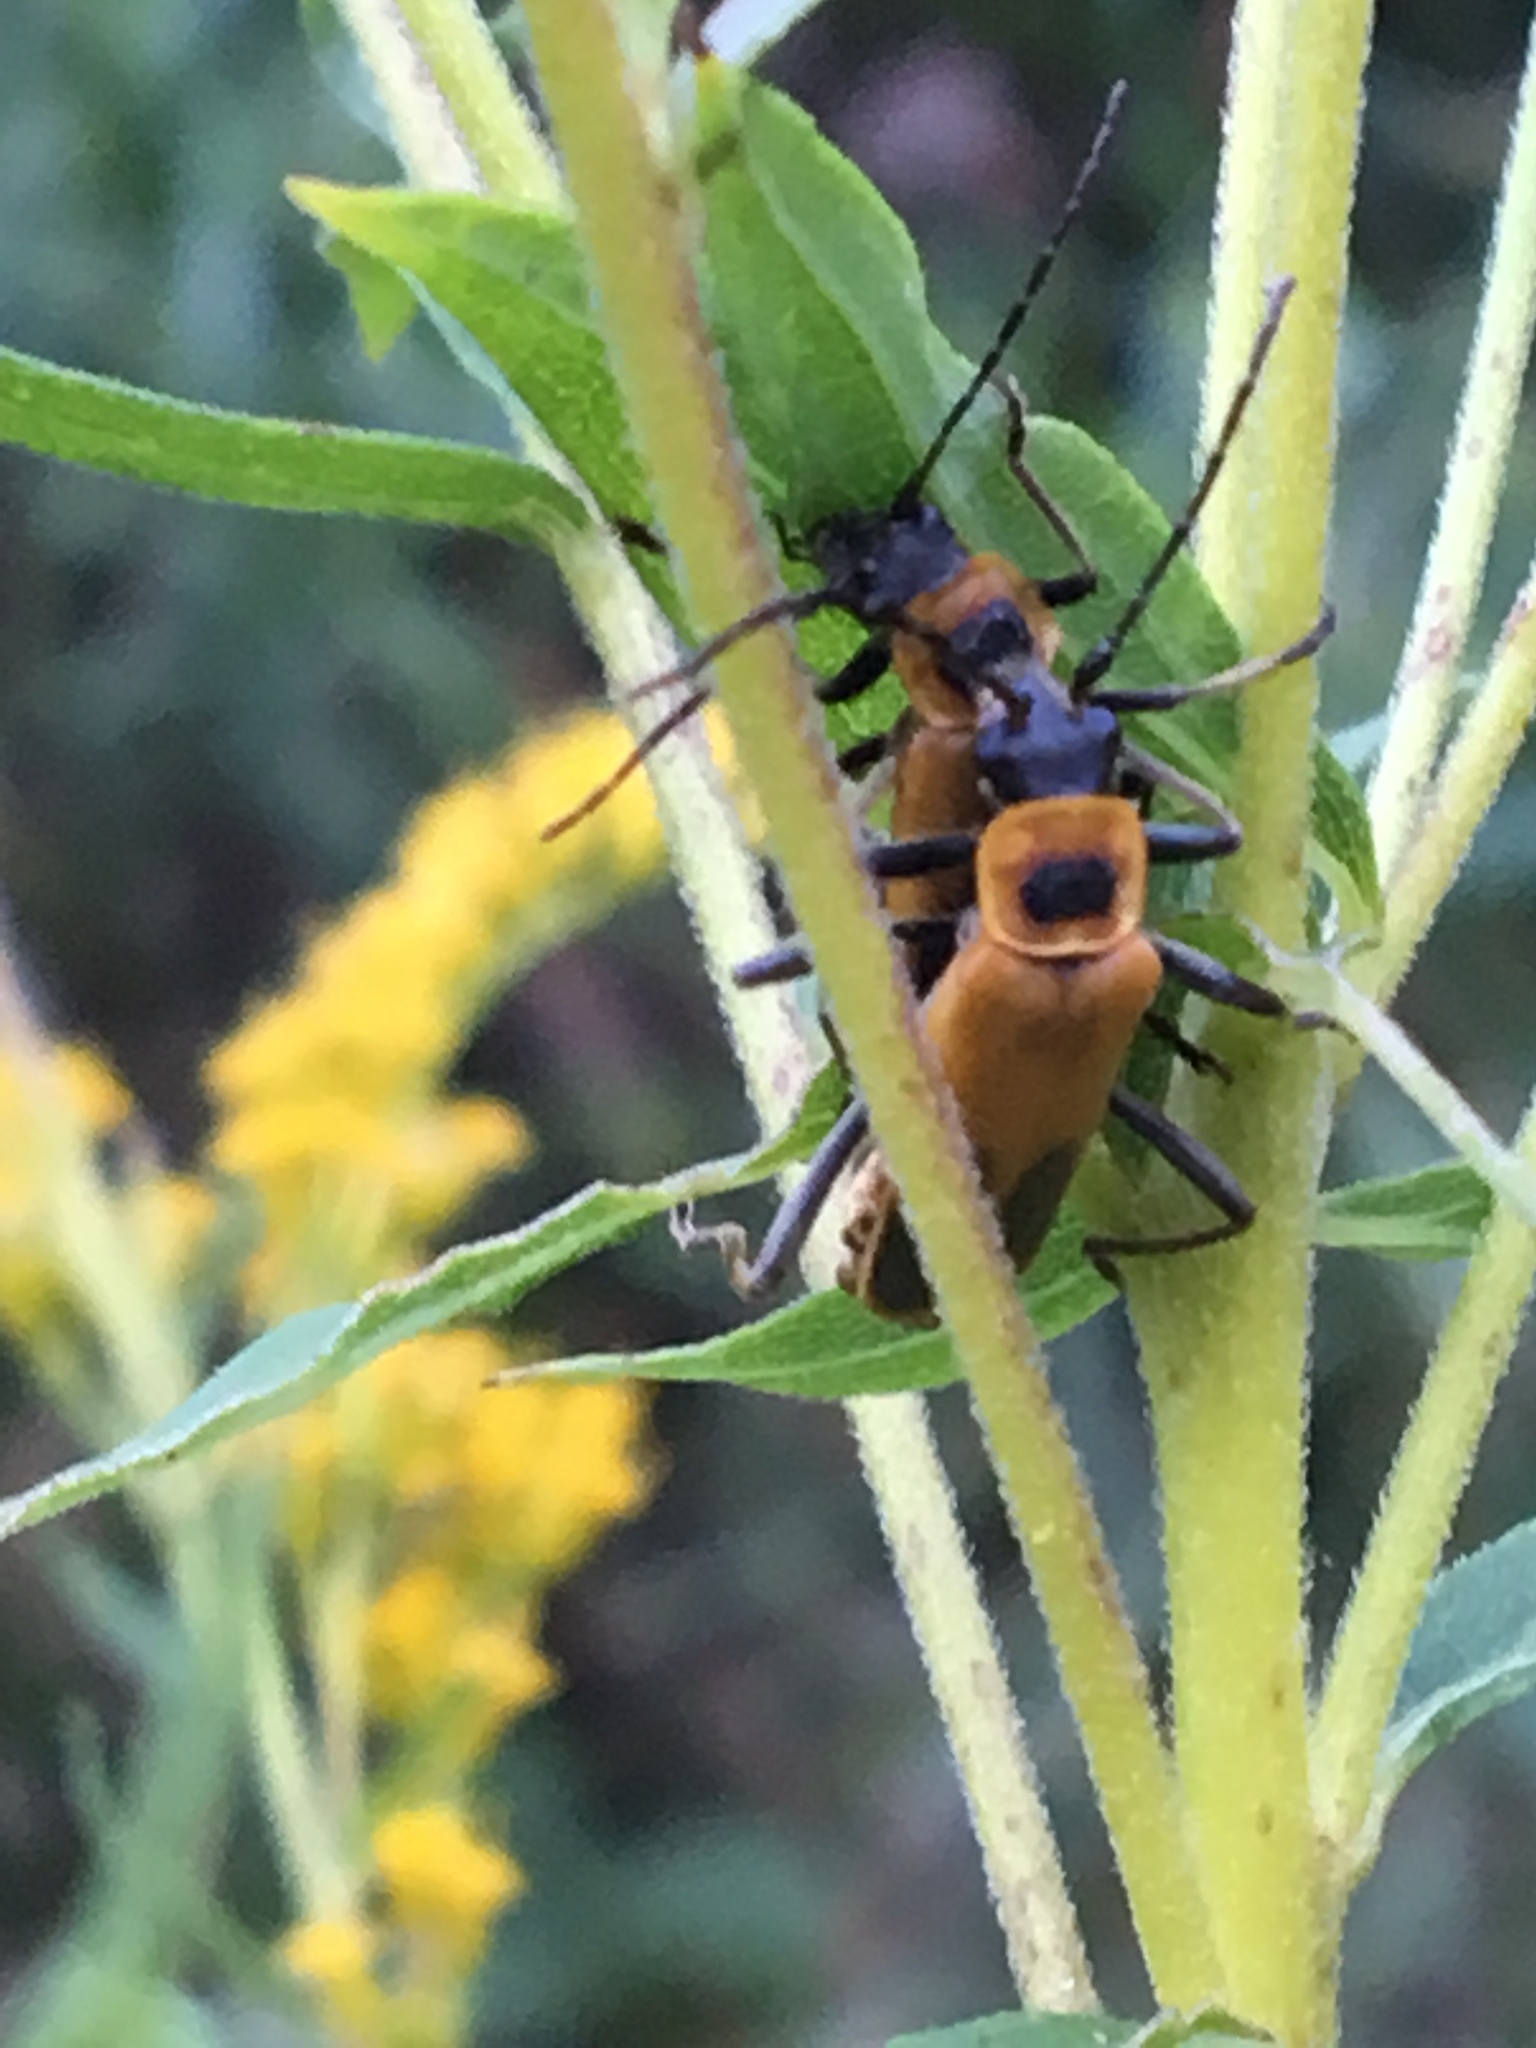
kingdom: Animalia
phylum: Arthropoda
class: Insecta
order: Coleoptera
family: Cantharidae
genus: Chauliognathus
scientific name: Chauliognathus pensylvanicus
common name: Goldenrod soldier beetle
